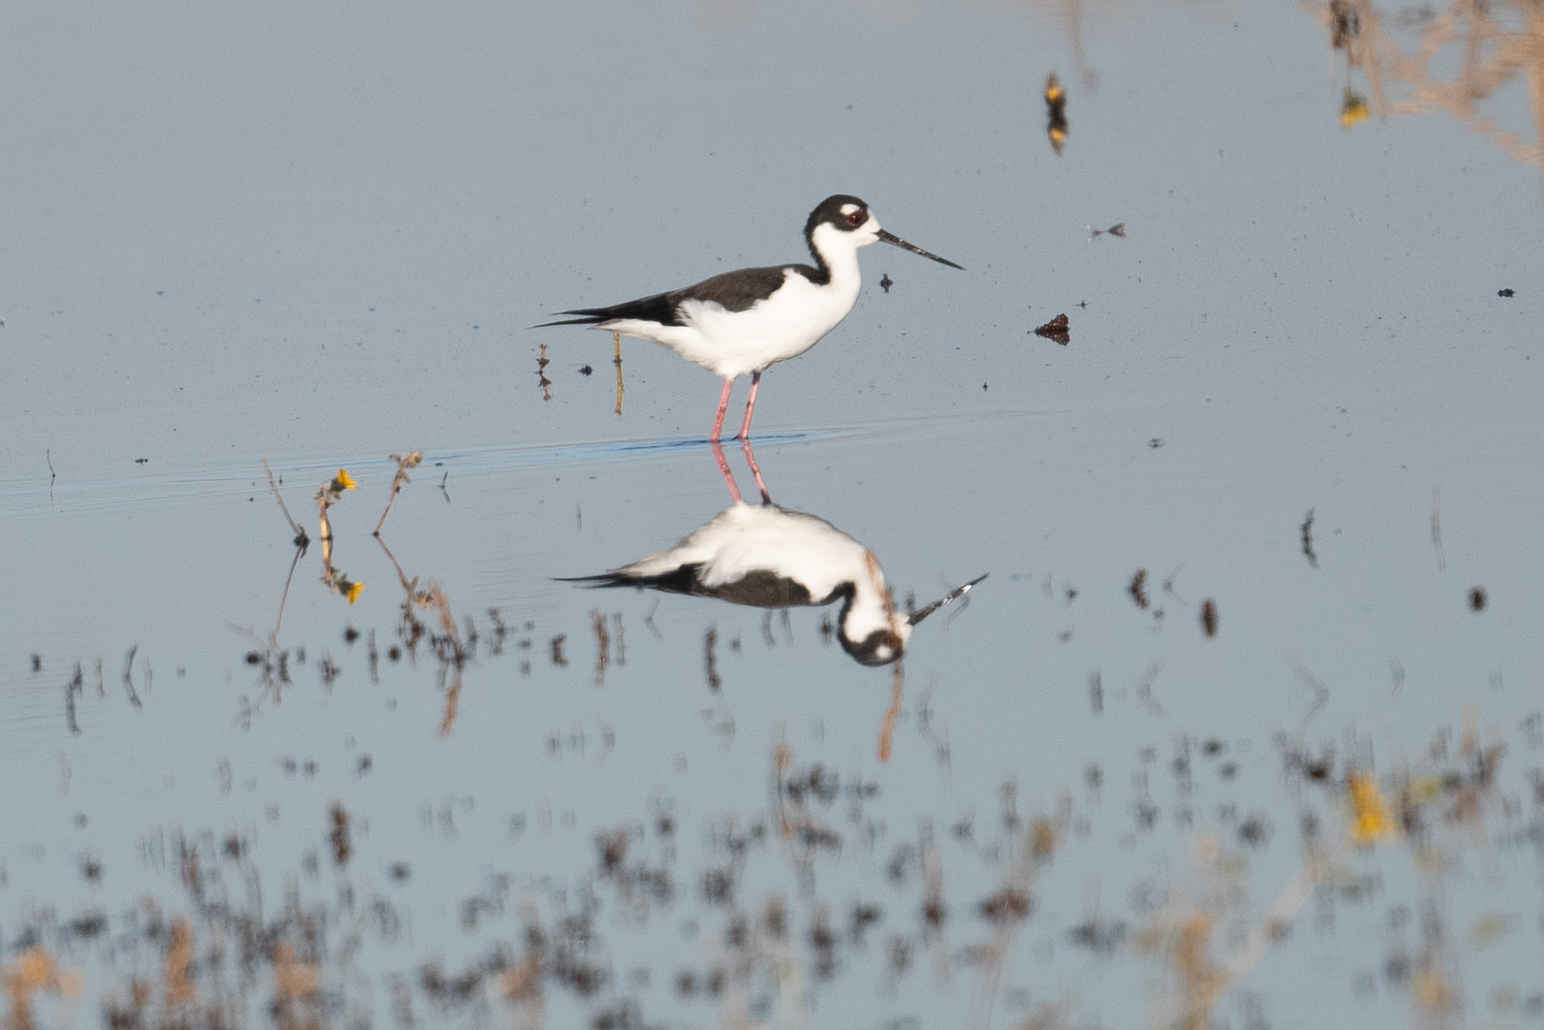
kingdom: Animalia
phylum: Chordata
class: Aves
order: Charadriiformes
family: Recurvirostridae
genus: Himantopus
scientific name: Himantopus mexicanus
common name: Black-necked stilt
